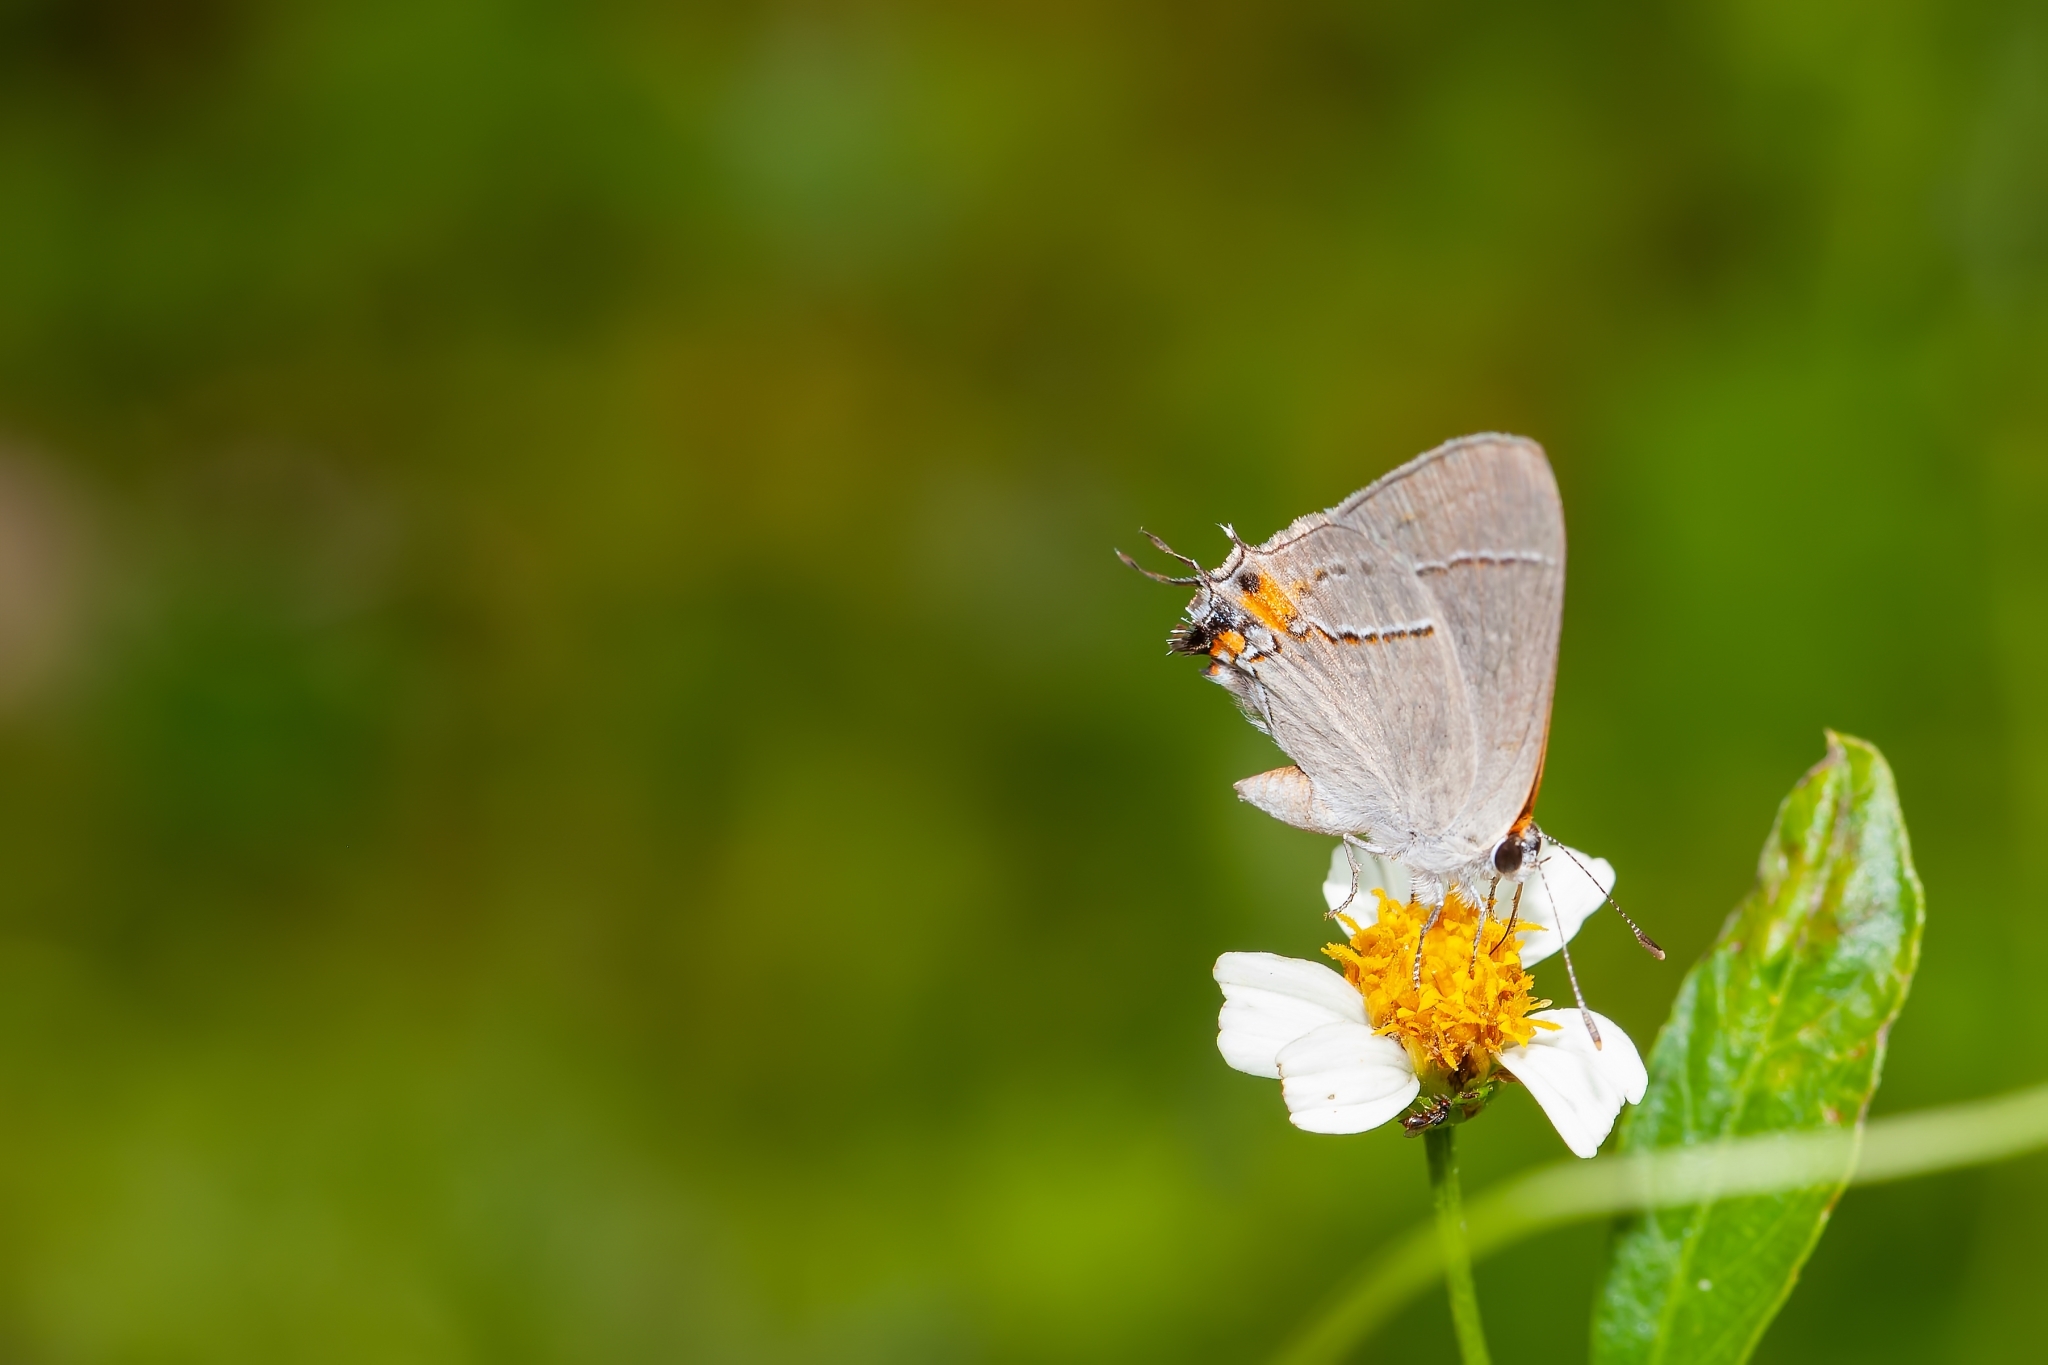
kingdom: Animalia
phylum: Arthropoda
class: Insecta
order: Lepidoptera
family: Lycaenidae
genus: Strymon
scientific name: Strymon melinus
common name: Gray hairstreak
